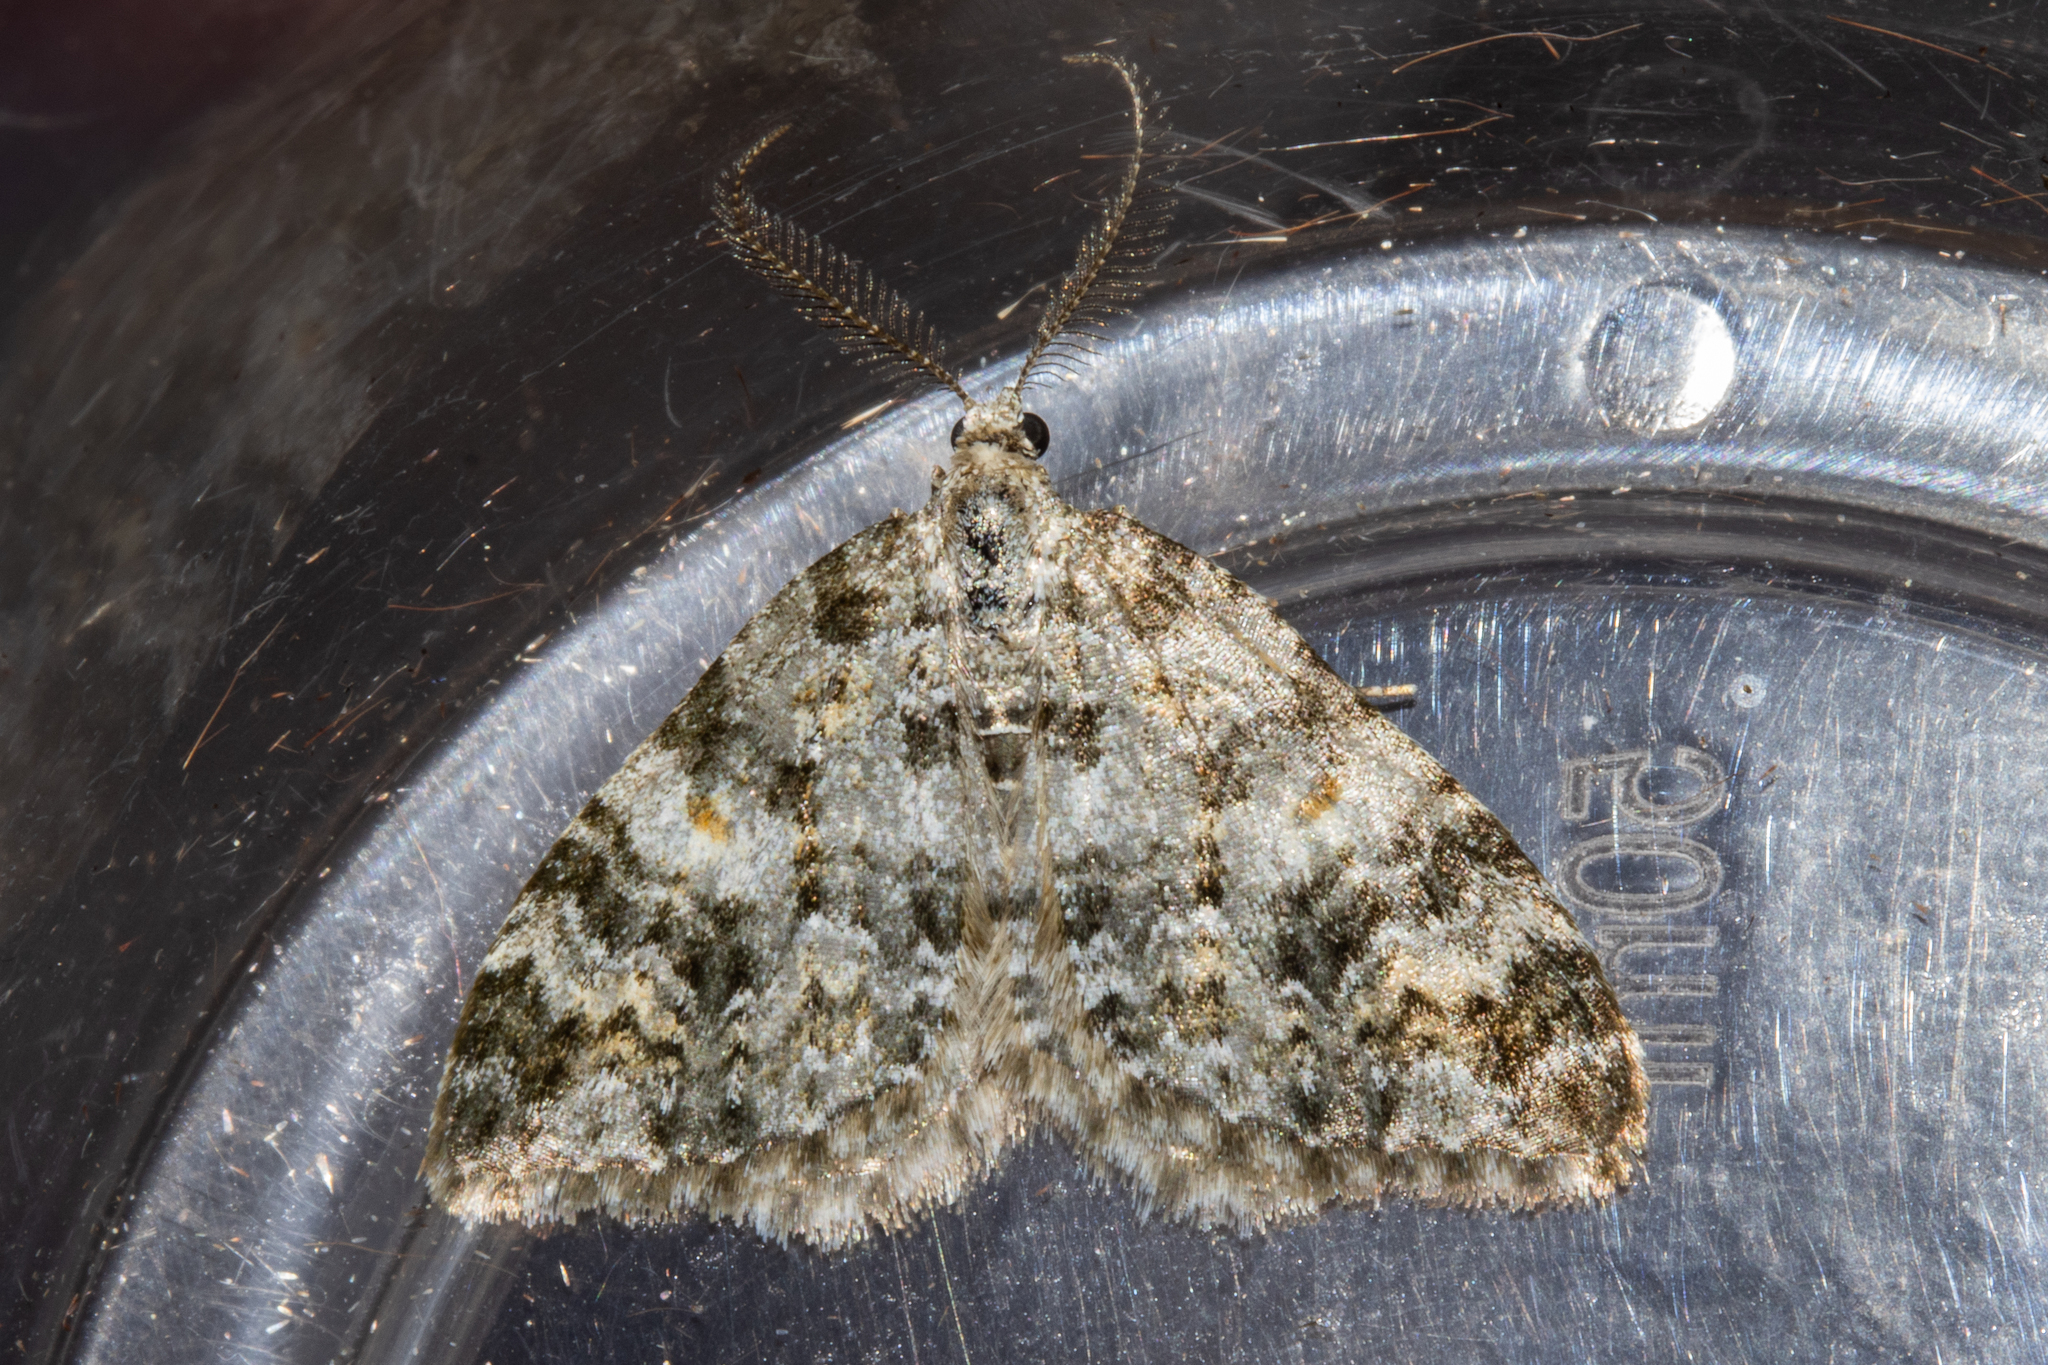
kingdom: Animalia
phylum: Arthropoda
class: Insecta
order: Lepidoptera
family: Geometridae
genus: Helastia
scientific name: Helastia plumbea
